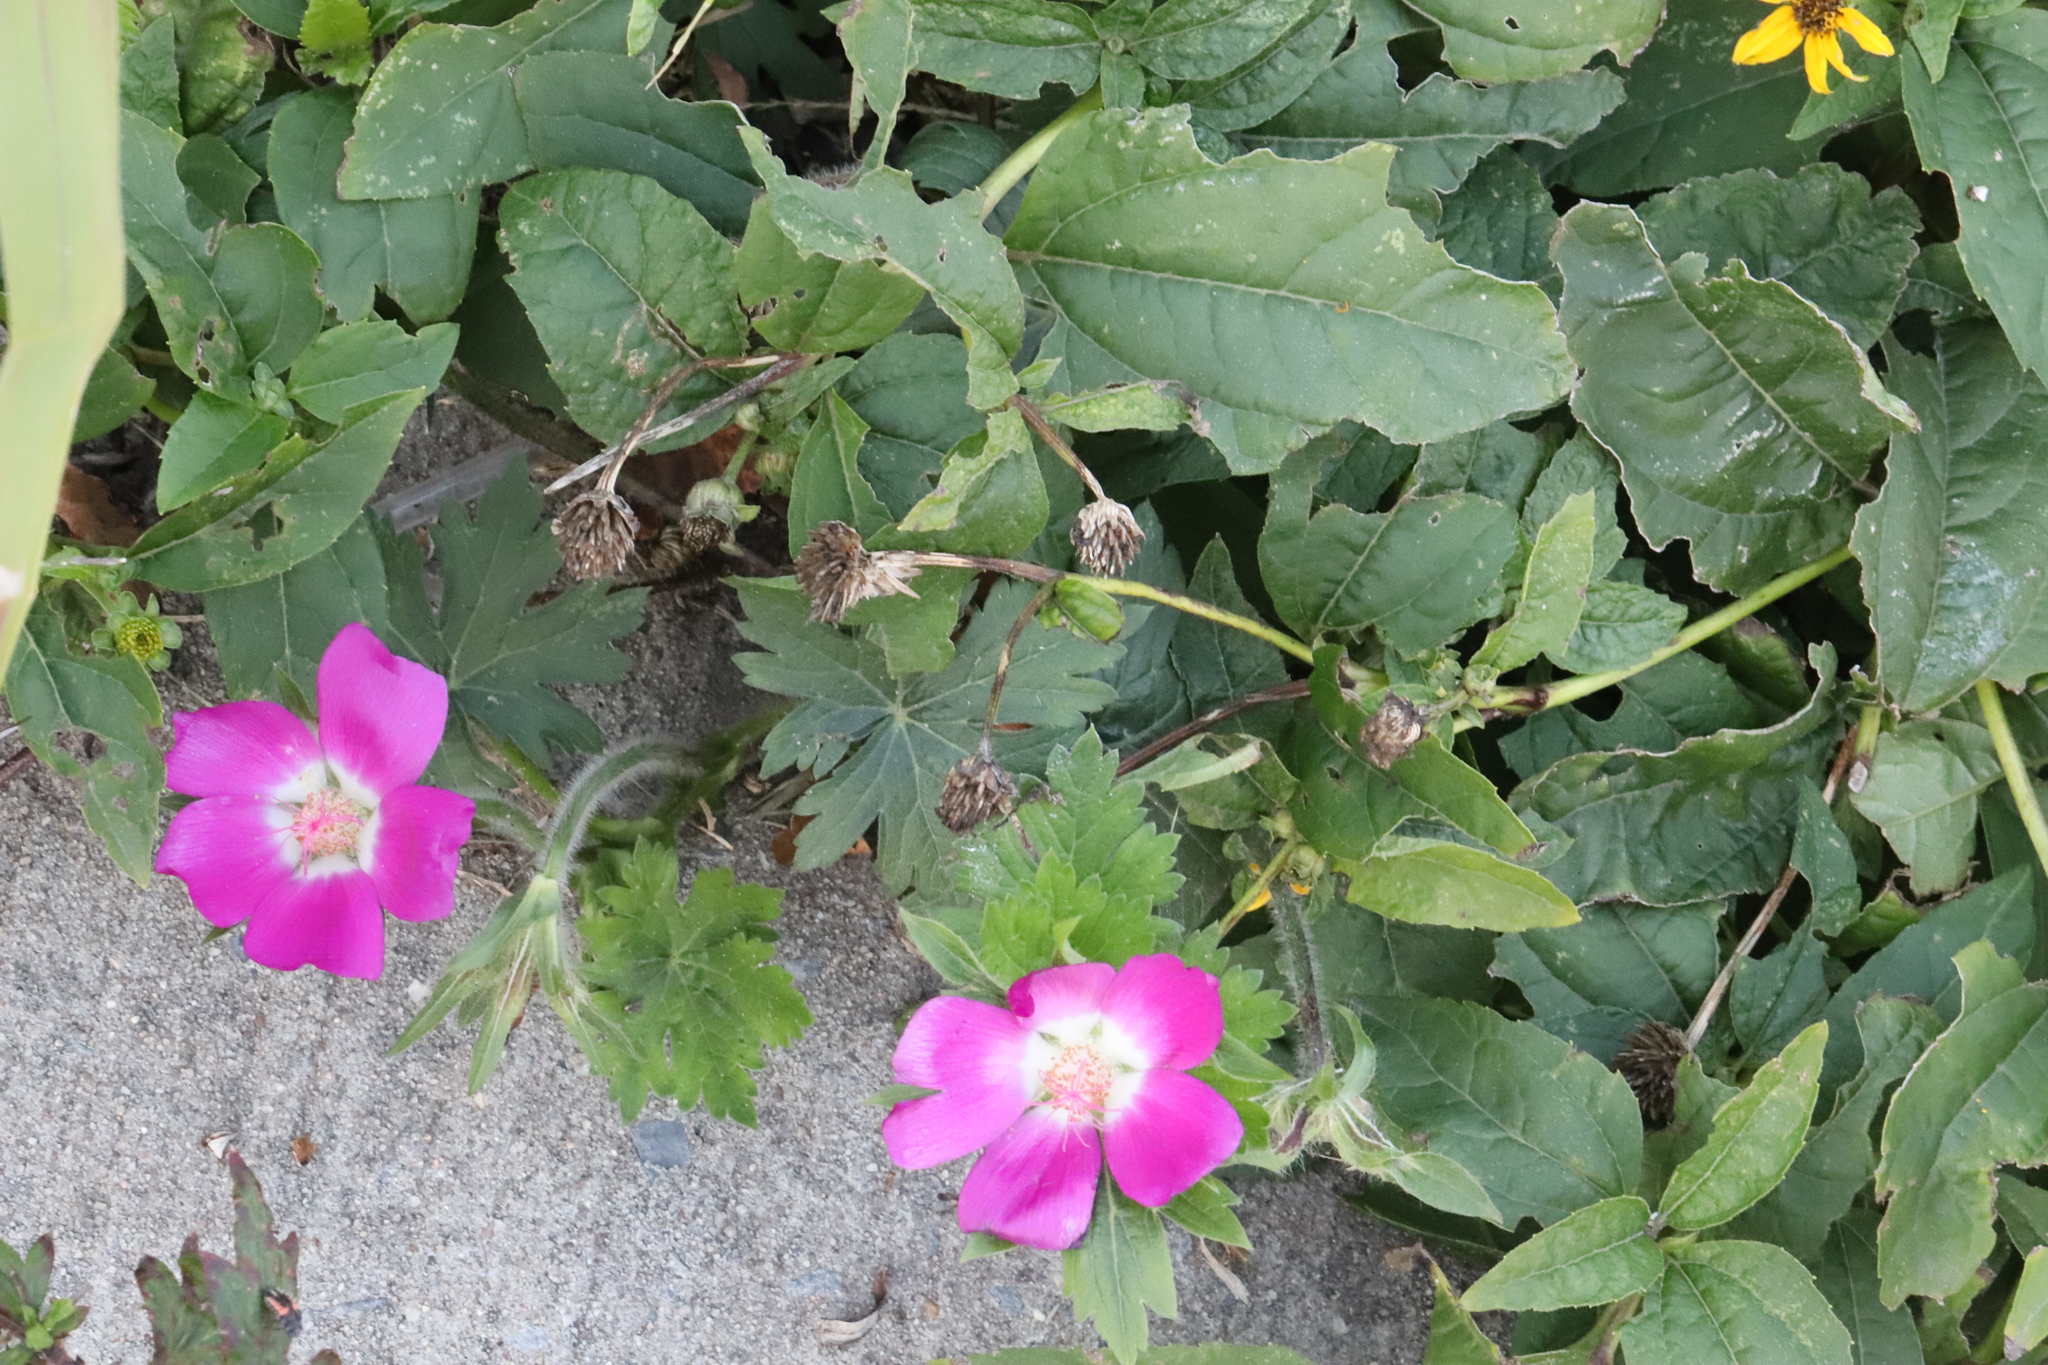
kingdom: Plantae
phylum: Tracheophyta
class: Magnoliopsida
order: Malvales
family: Malvaceae
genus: Callirhoe
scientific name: Callirhoe involucrata
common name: Purple poppy-mallow
